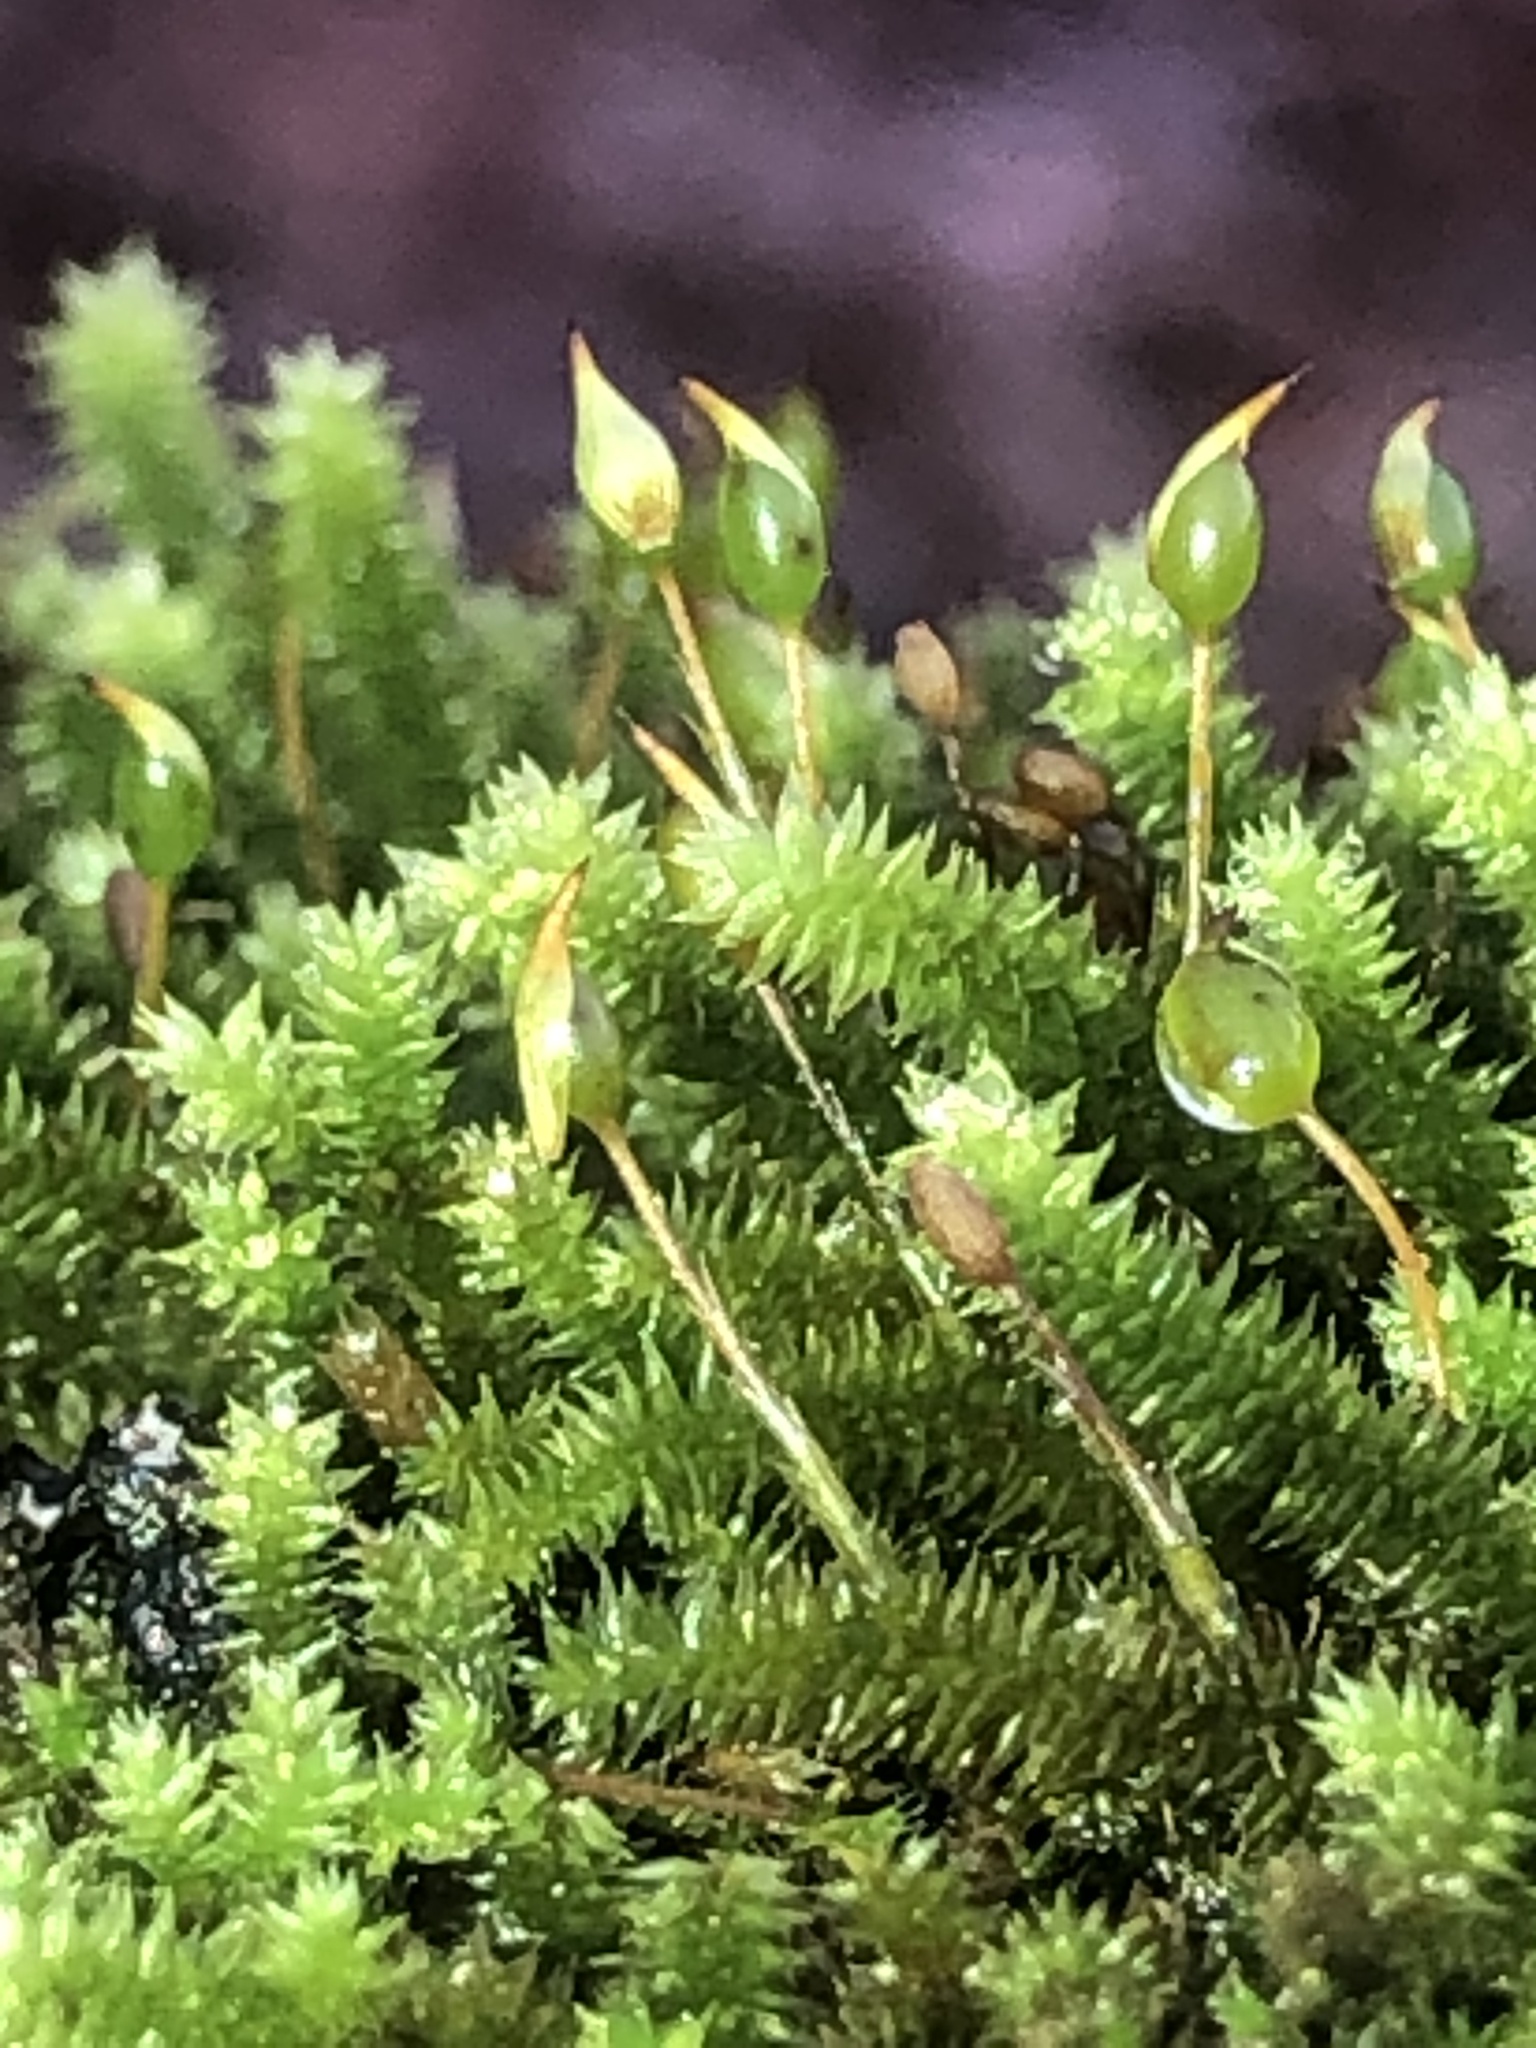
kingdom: Plantae
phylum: Bryophyta
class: Bryopsida
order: Hypnales
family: Leucodontaceae
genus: Leucodon
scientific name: Leucodon julaceus
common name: Smooth hook moss
